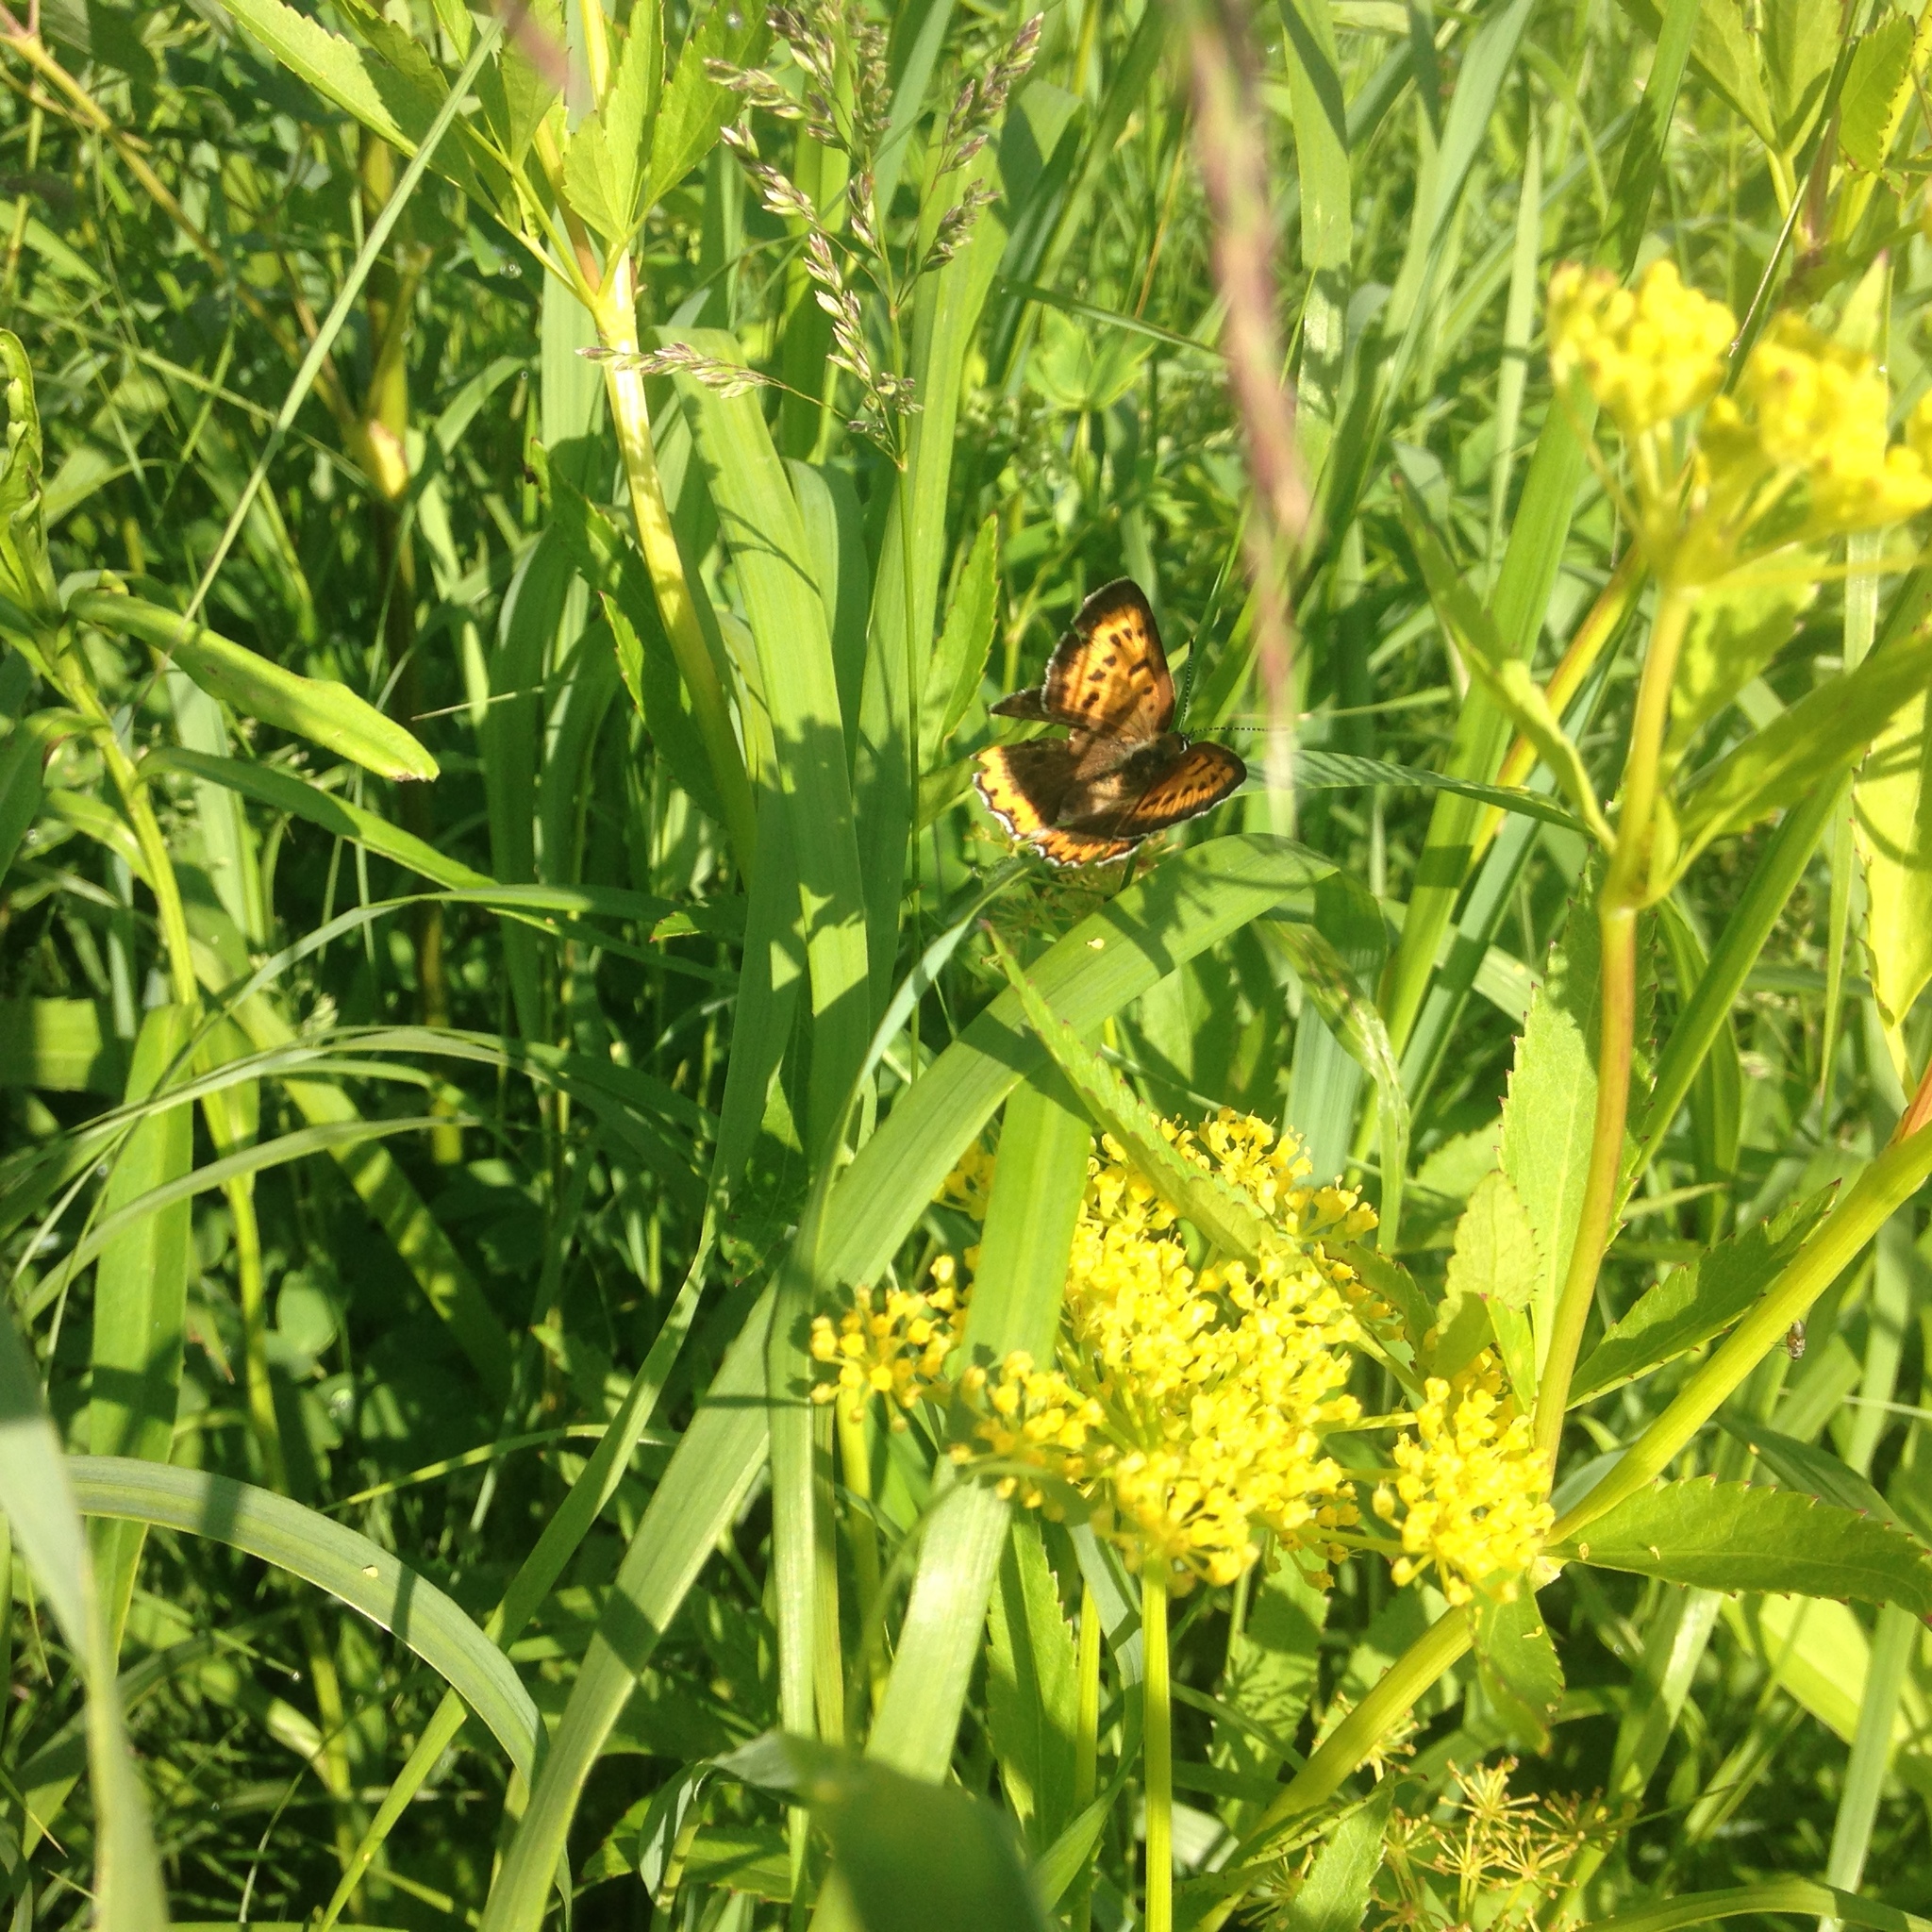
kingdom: Animalia
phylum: Arthropoda
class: Insecta
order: Lepidoptera
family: Lycaenidae
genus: Tharsalea
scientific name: Tharsalea hyllus
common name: Bronze copper
